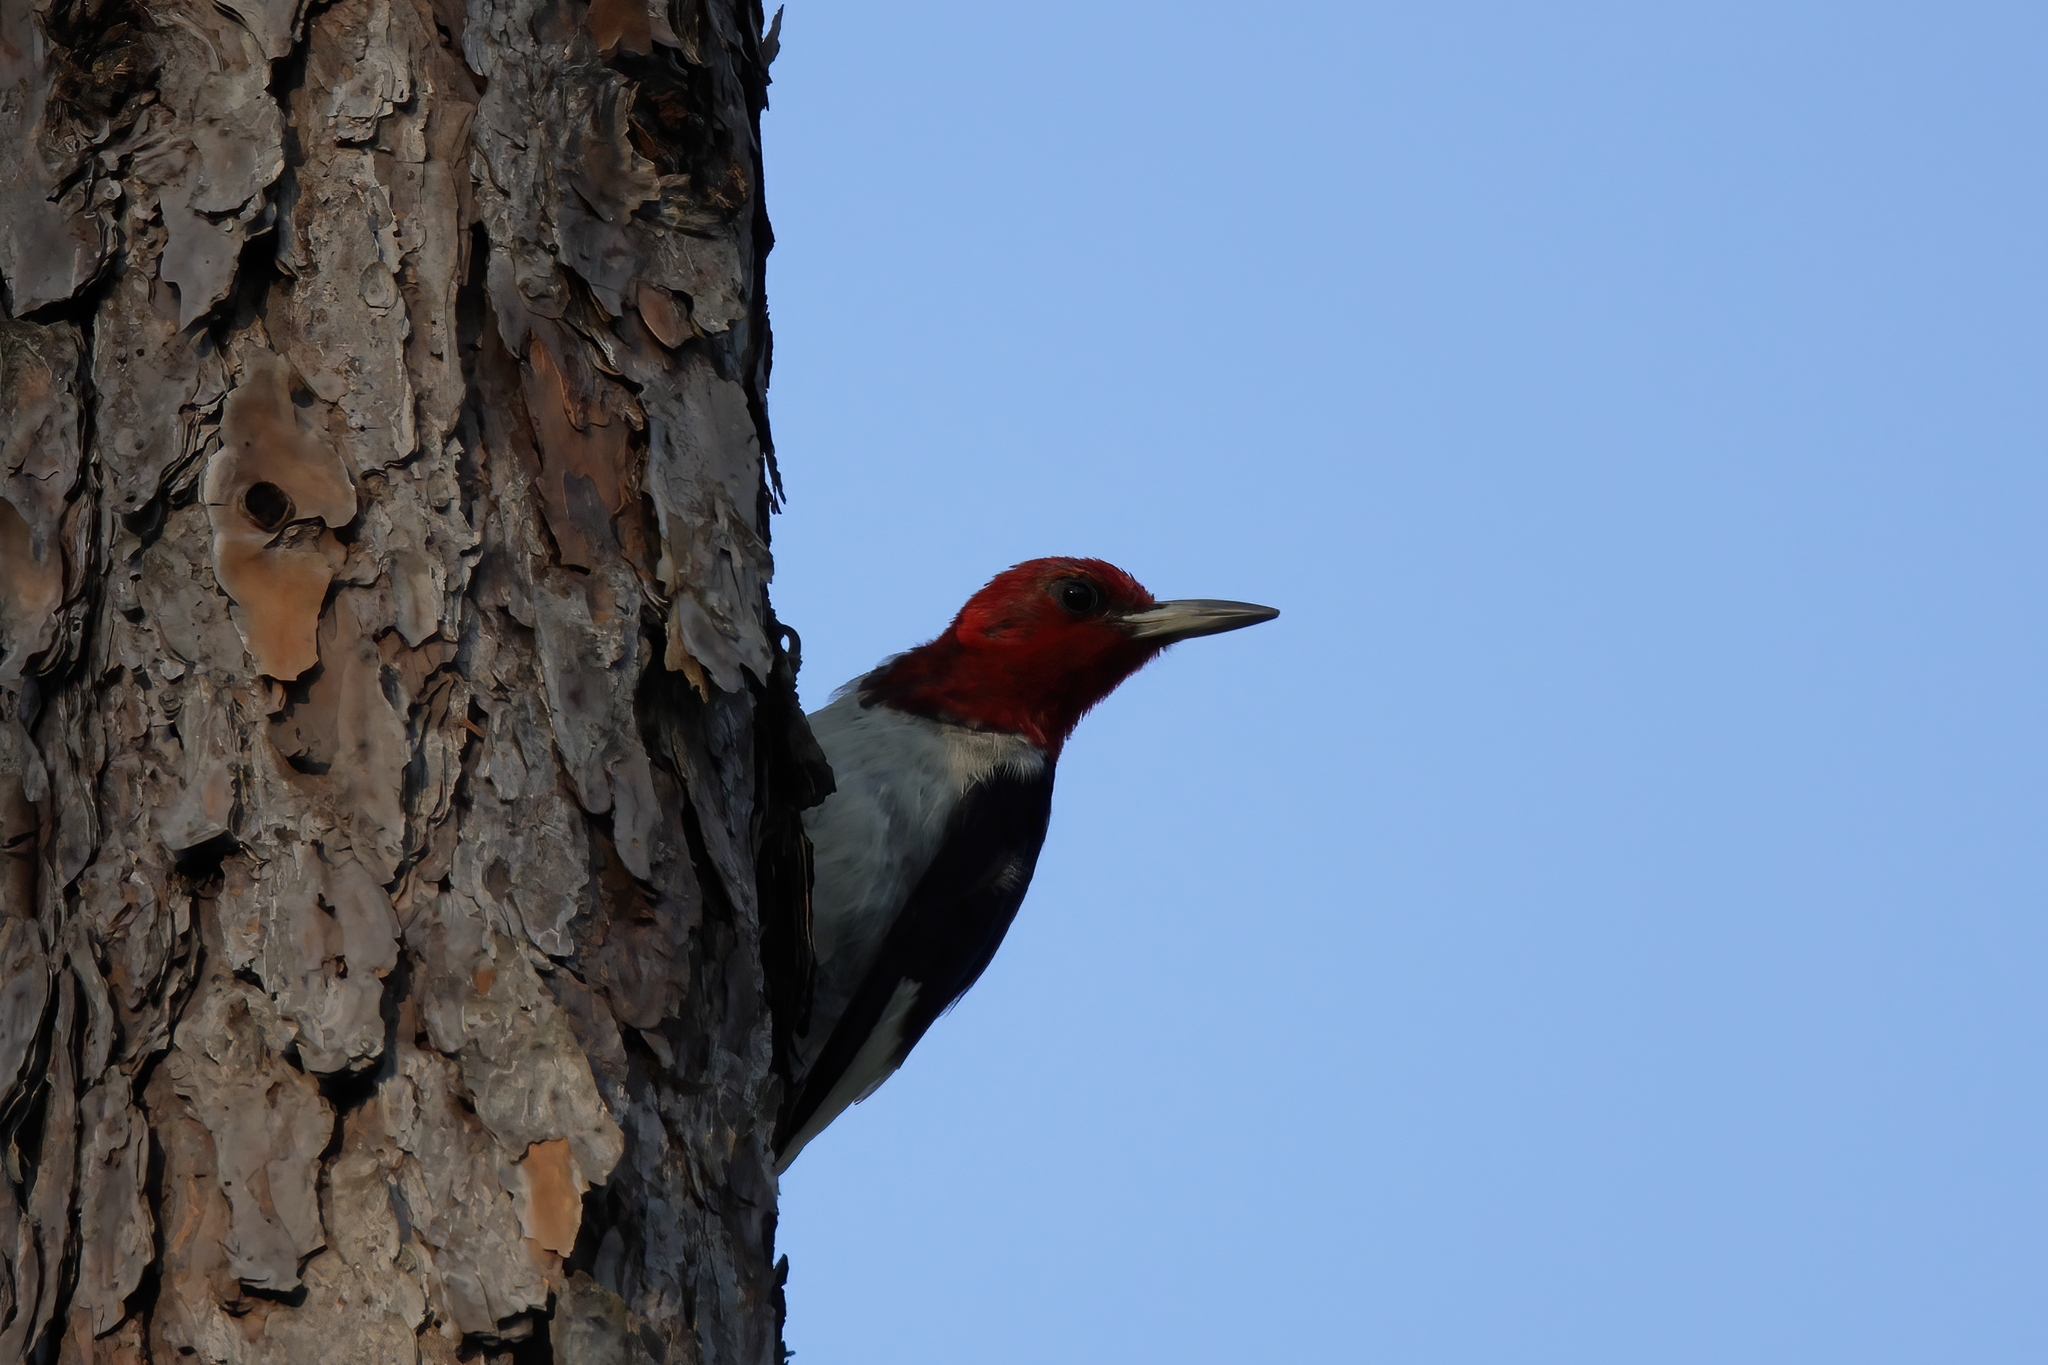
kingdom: Animalia
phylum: Chordata
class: Aves
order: Piciformes
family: Picidae
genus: Melanerpes
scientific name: Melanerpes erythrocephalus
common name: Red-headed woodpecker
